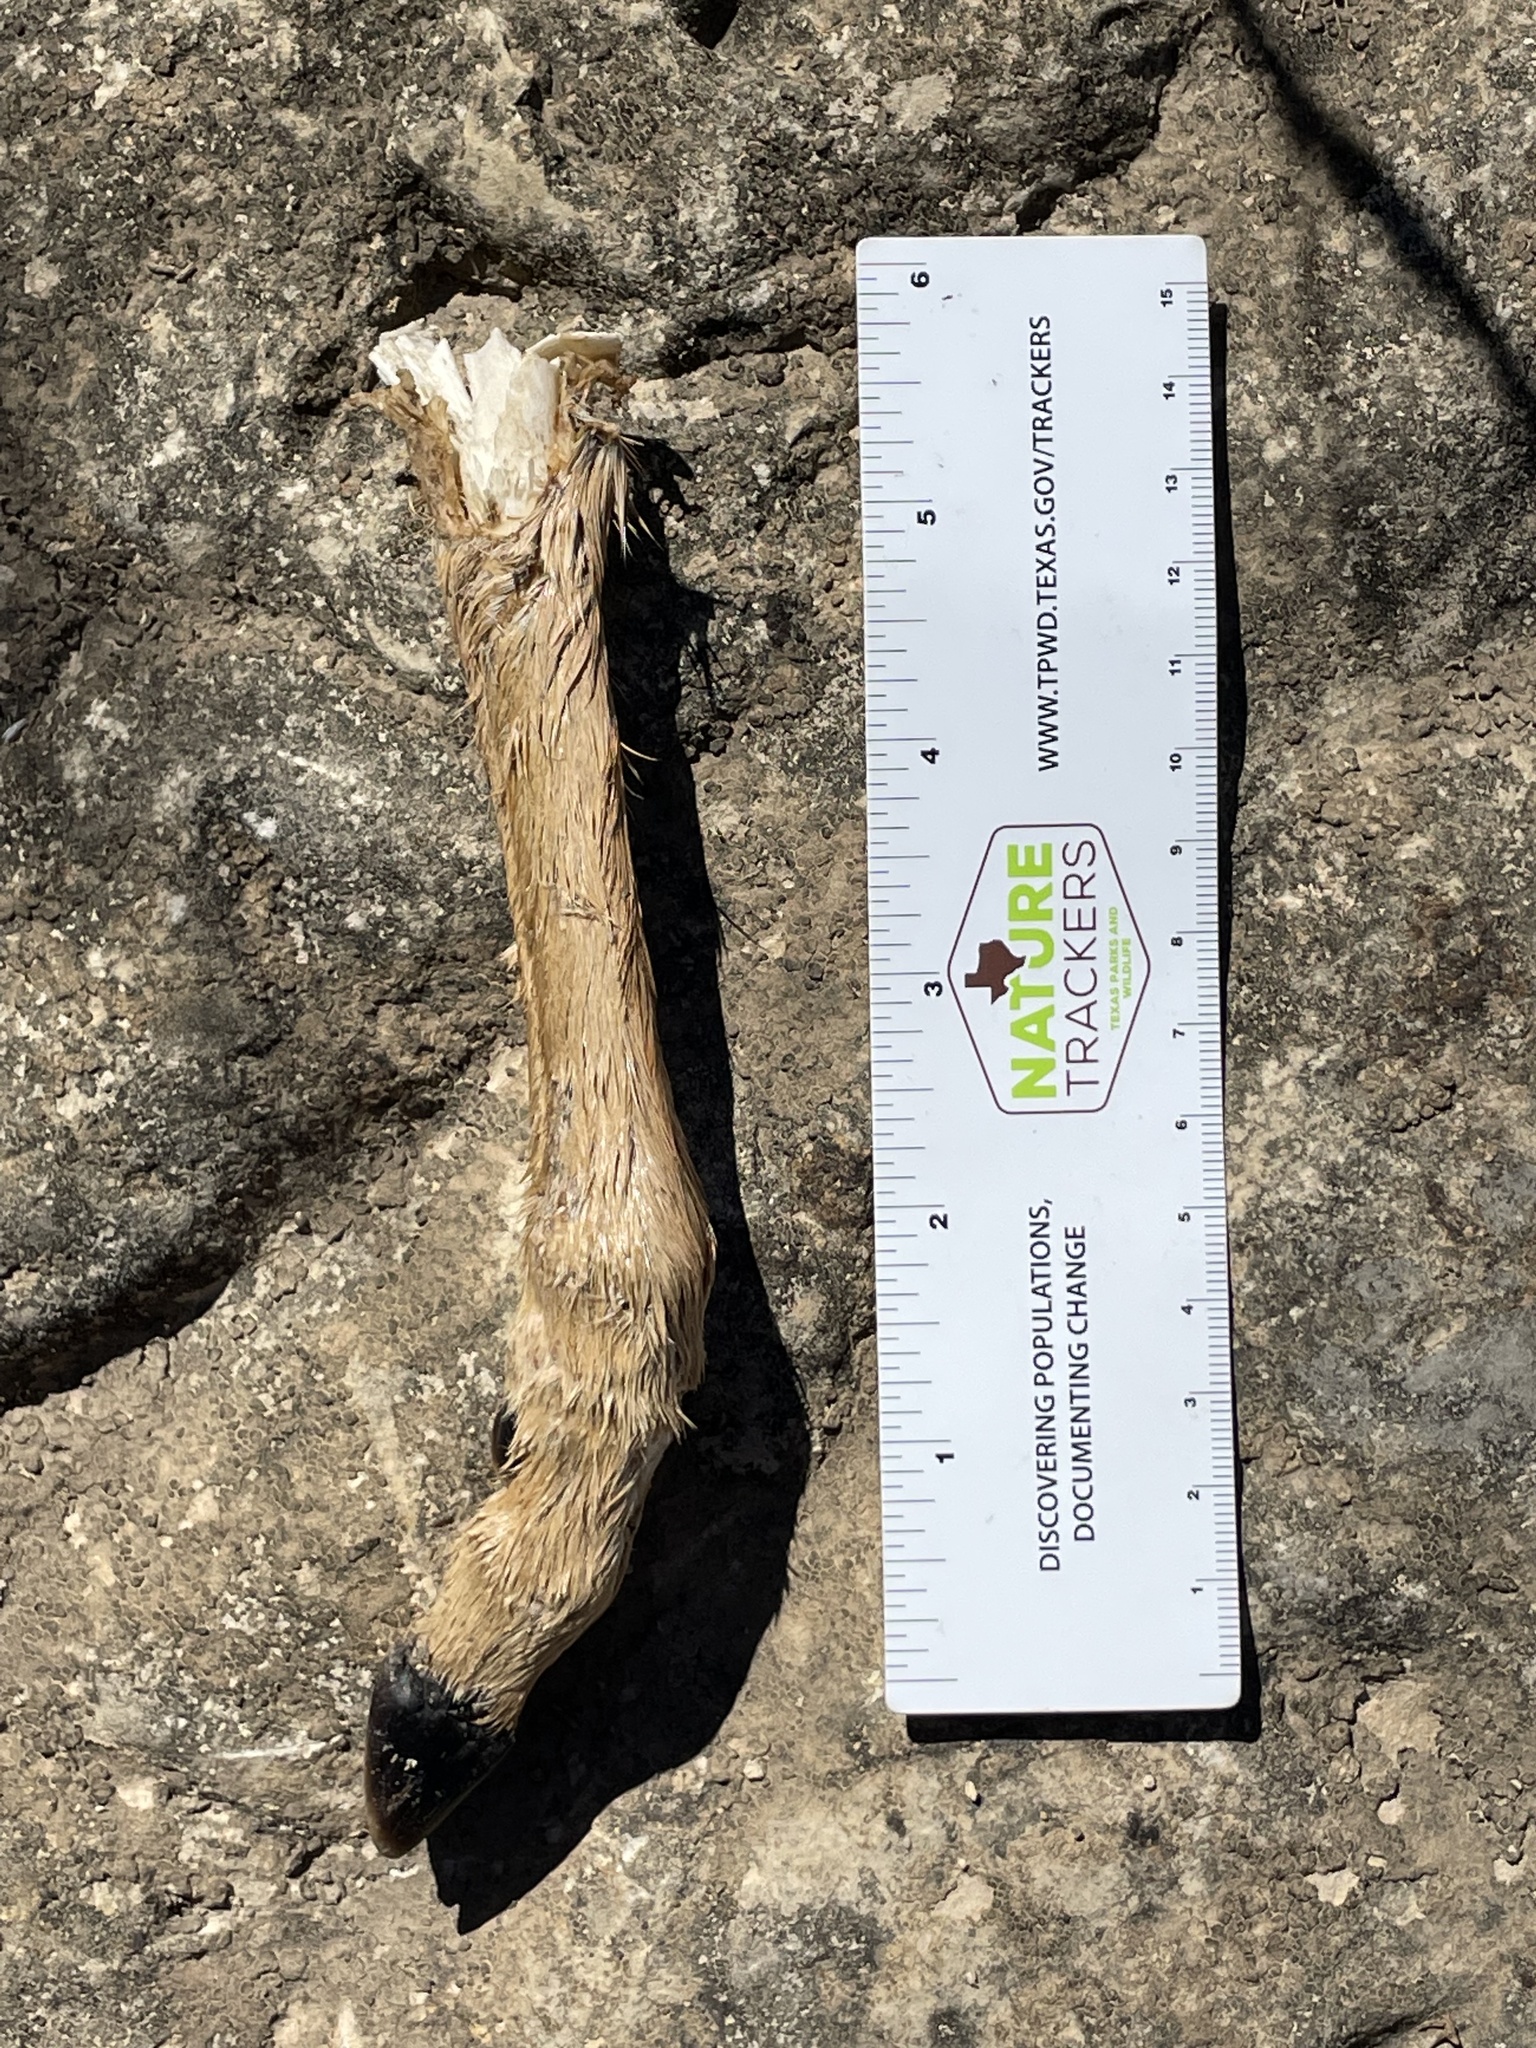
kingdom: Animalia
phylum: Chordata
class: Mammalia
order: Artiodactyla
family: Cervidae
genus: Odocoileus
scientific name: Odocoileus virginianus
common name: White-tailed deer
